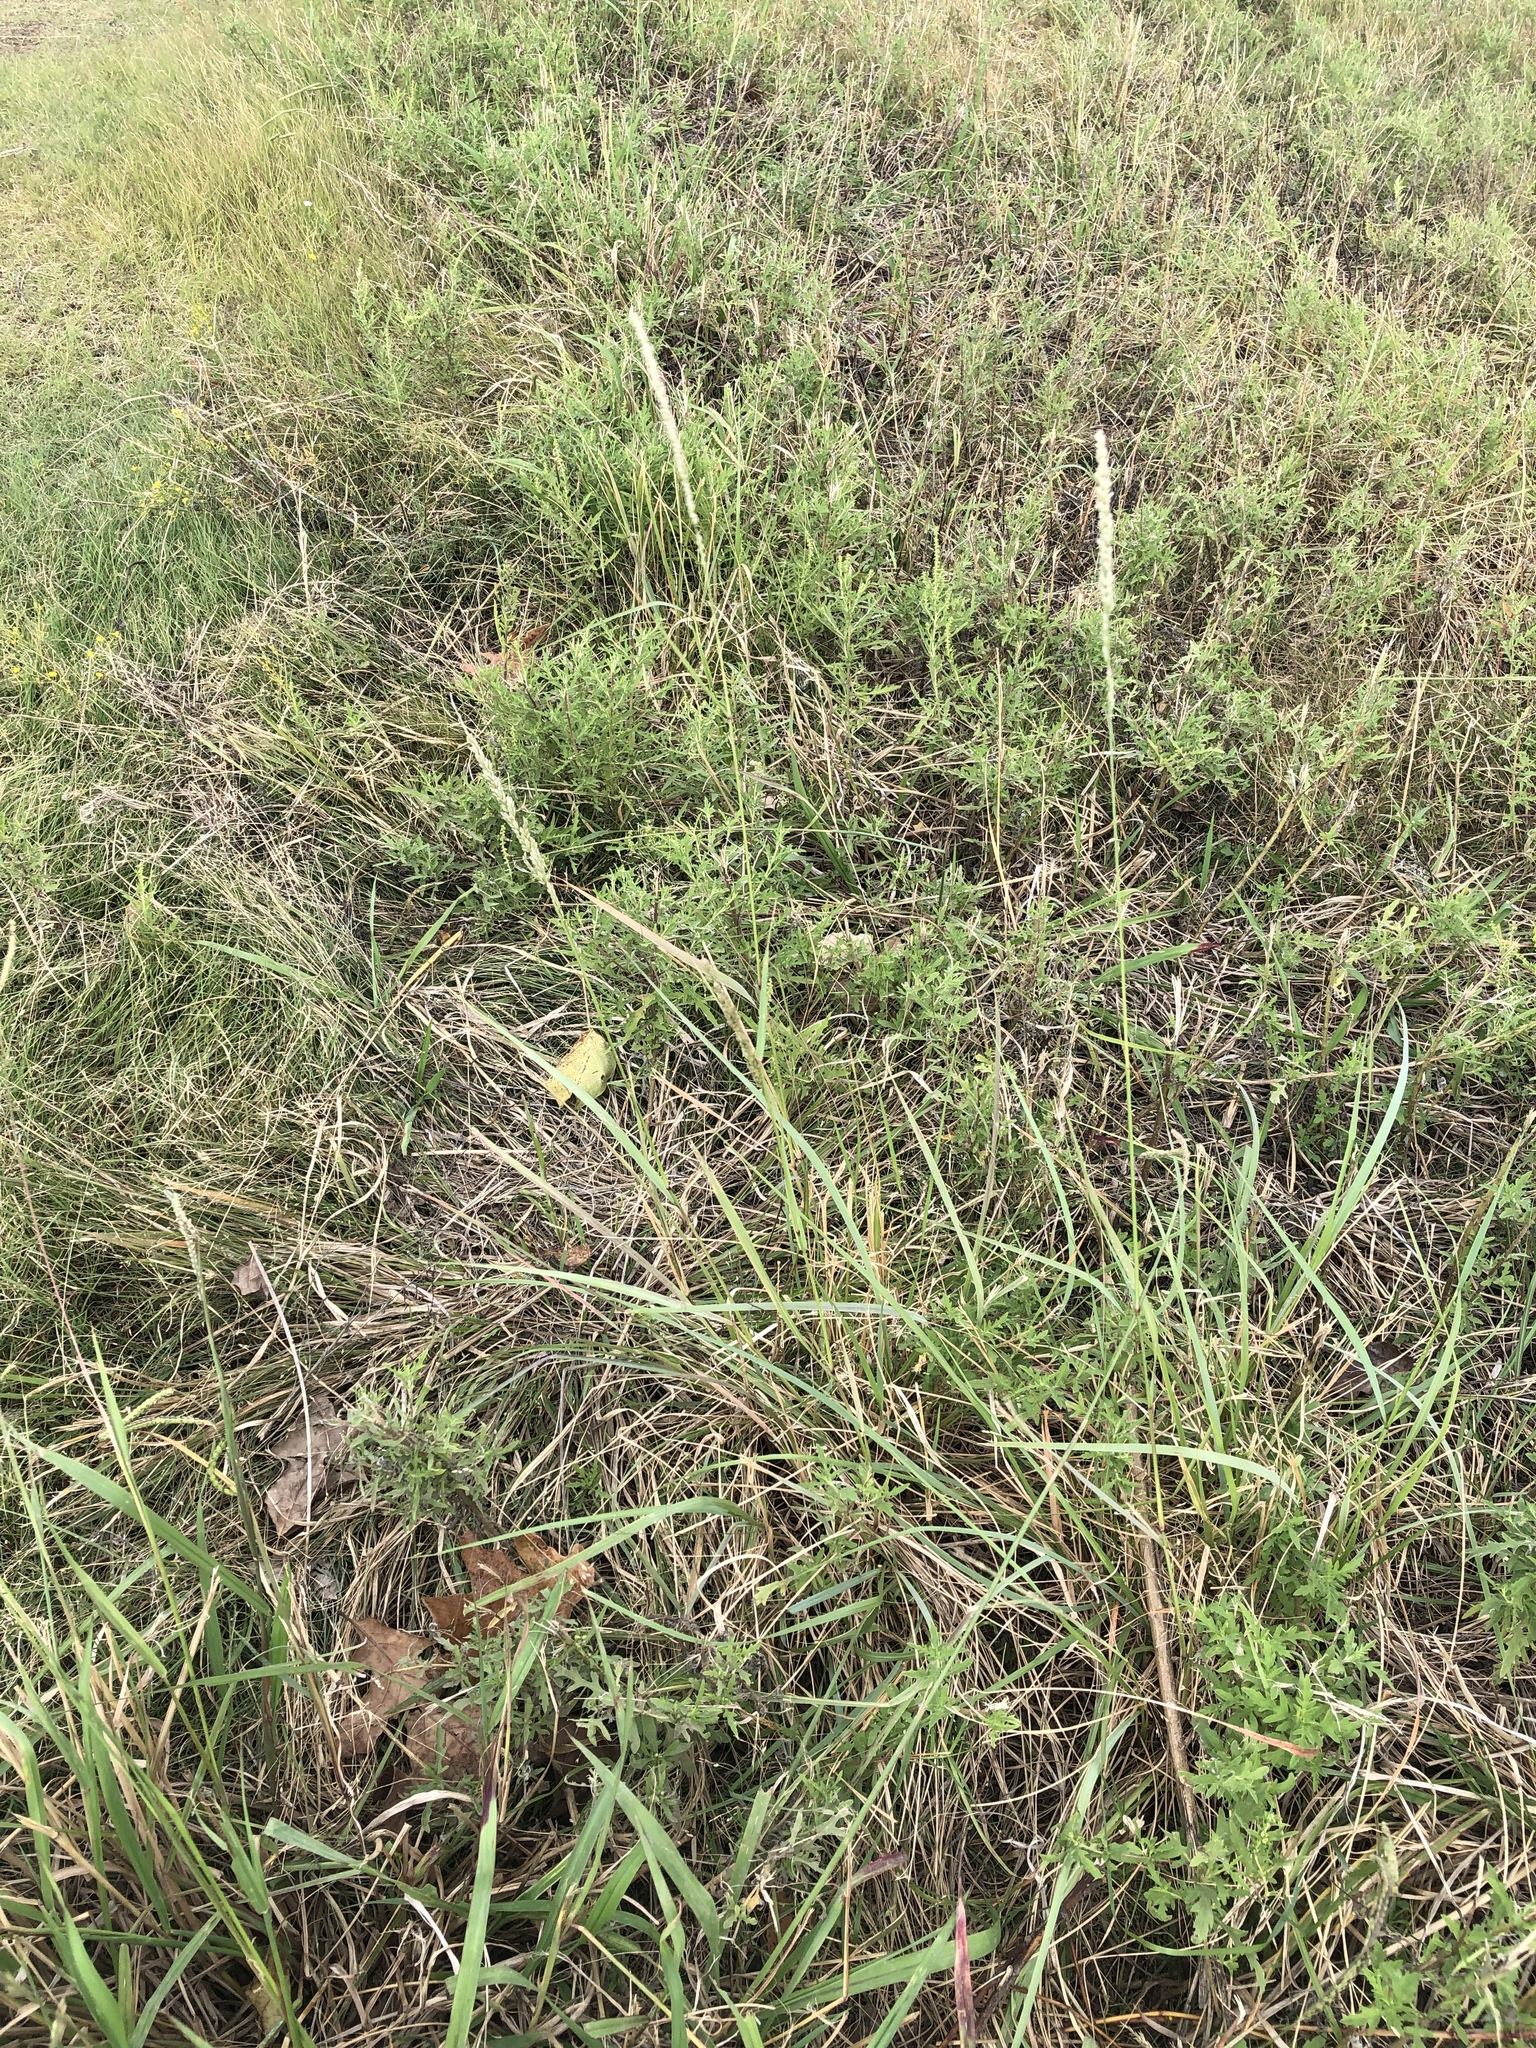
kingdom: Plantae
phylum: Tracheophyta
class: Liliopsida
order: Poales
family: Poaceae
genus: Tridens
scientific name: Tridens albescens
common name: White tridens
